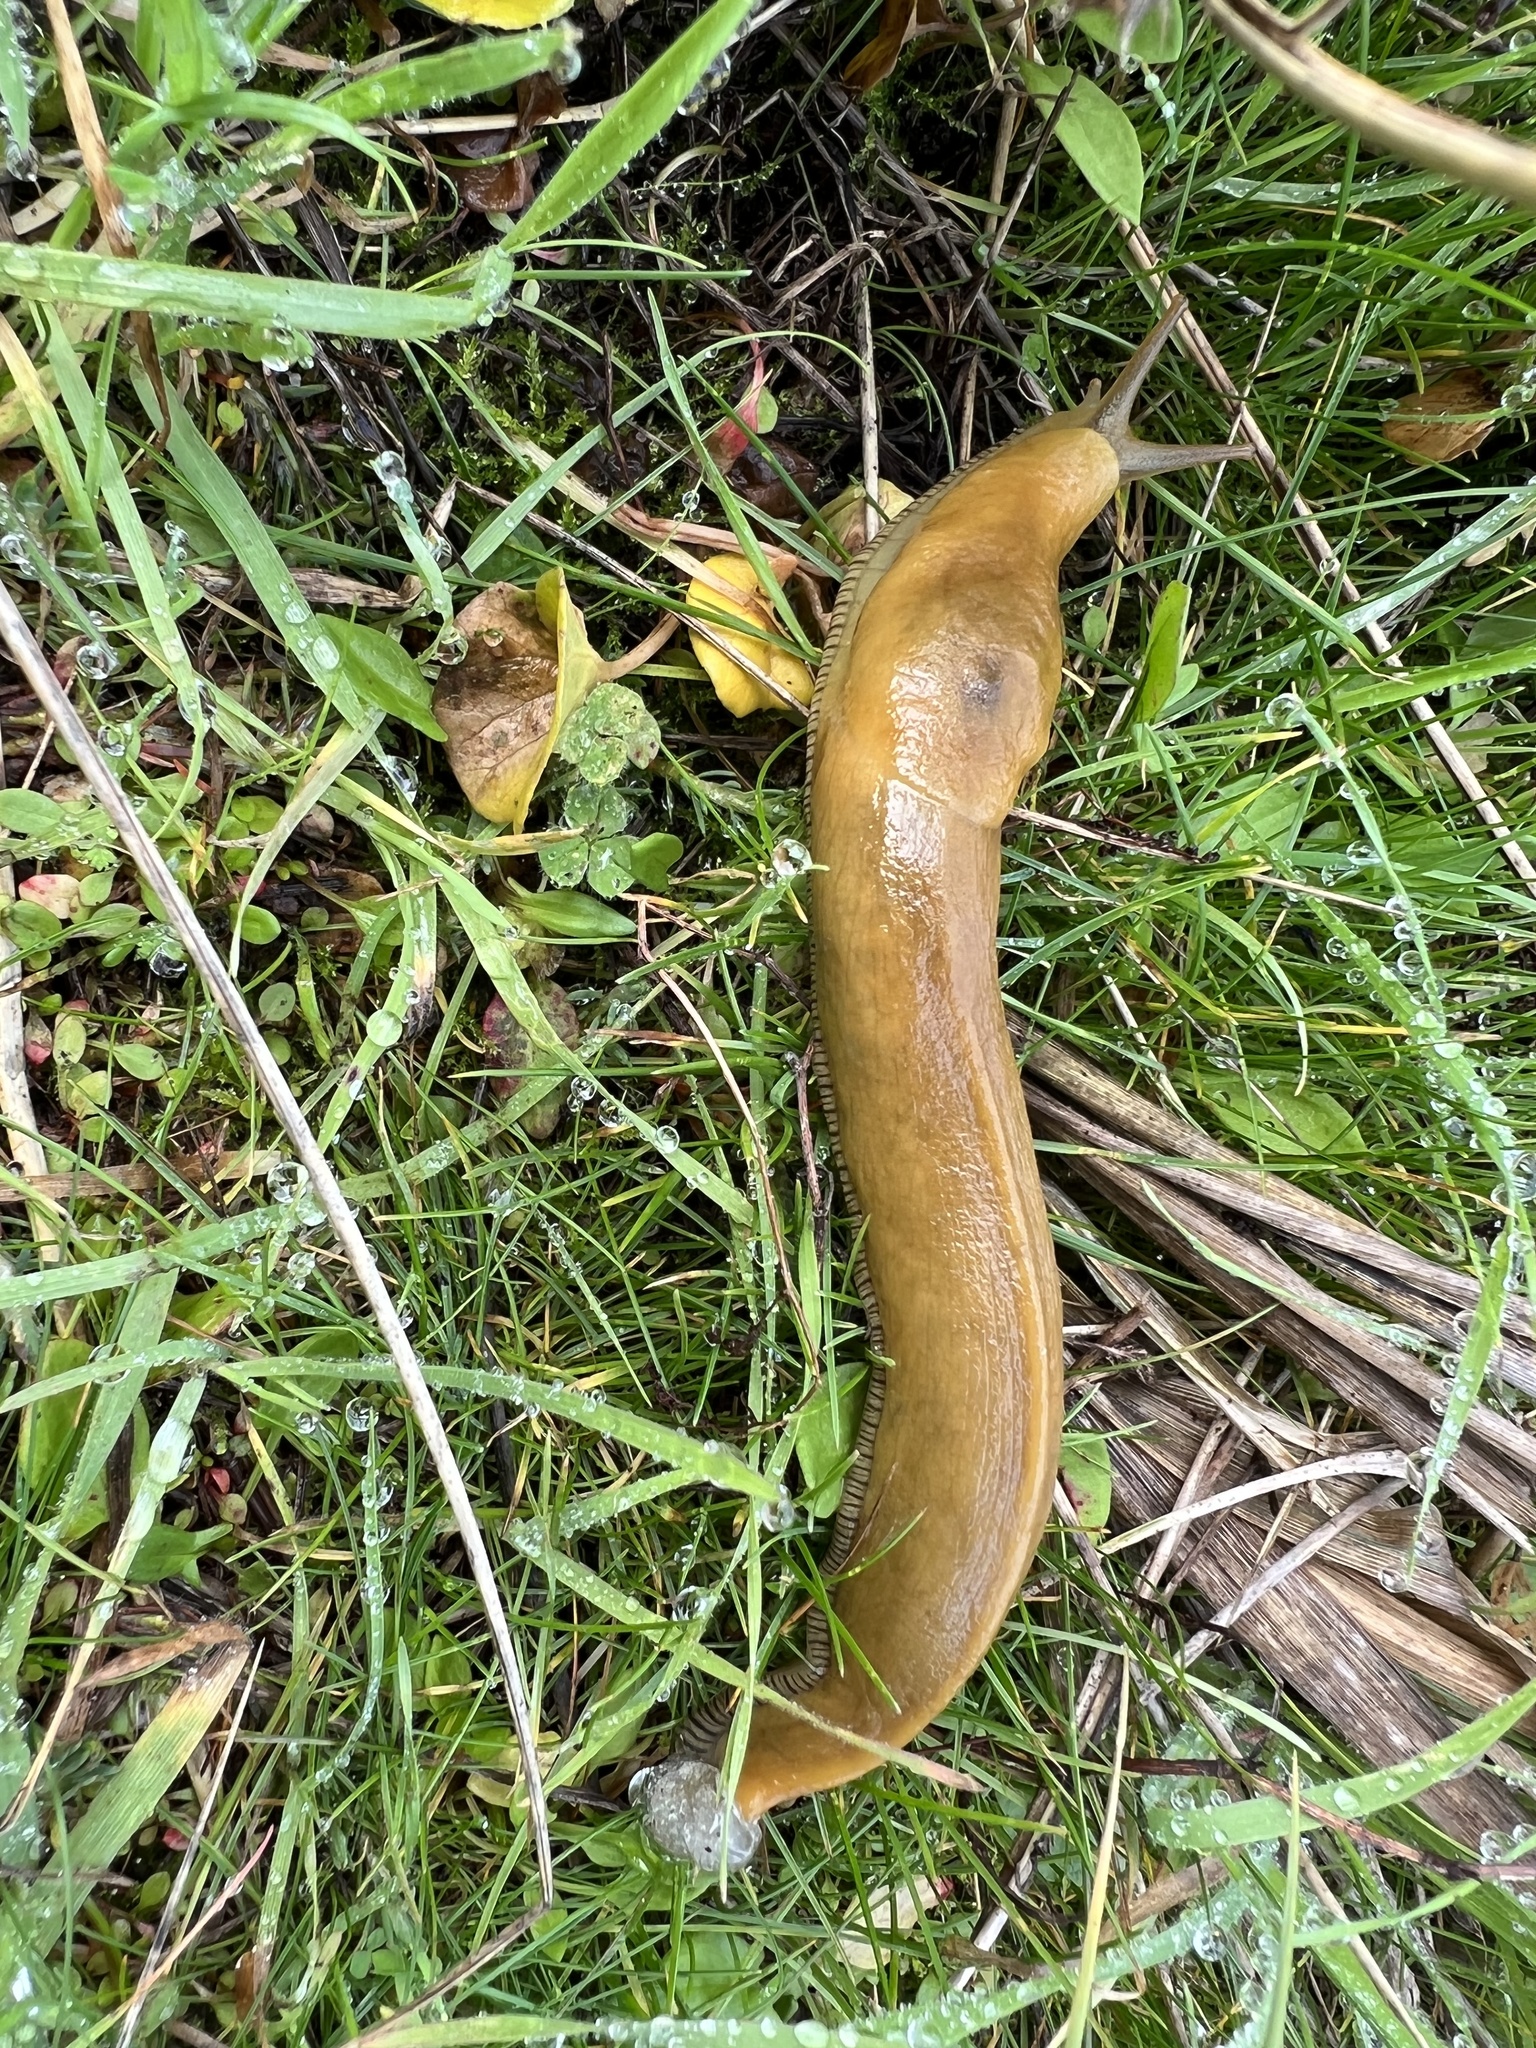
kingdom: Animalia
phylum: Mollusca
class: Gastropoda
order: Stylommatophora
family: Ariolimacidae
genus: Ariolimax
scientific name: Ariolimax columbianus
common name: Pacific banana slug
